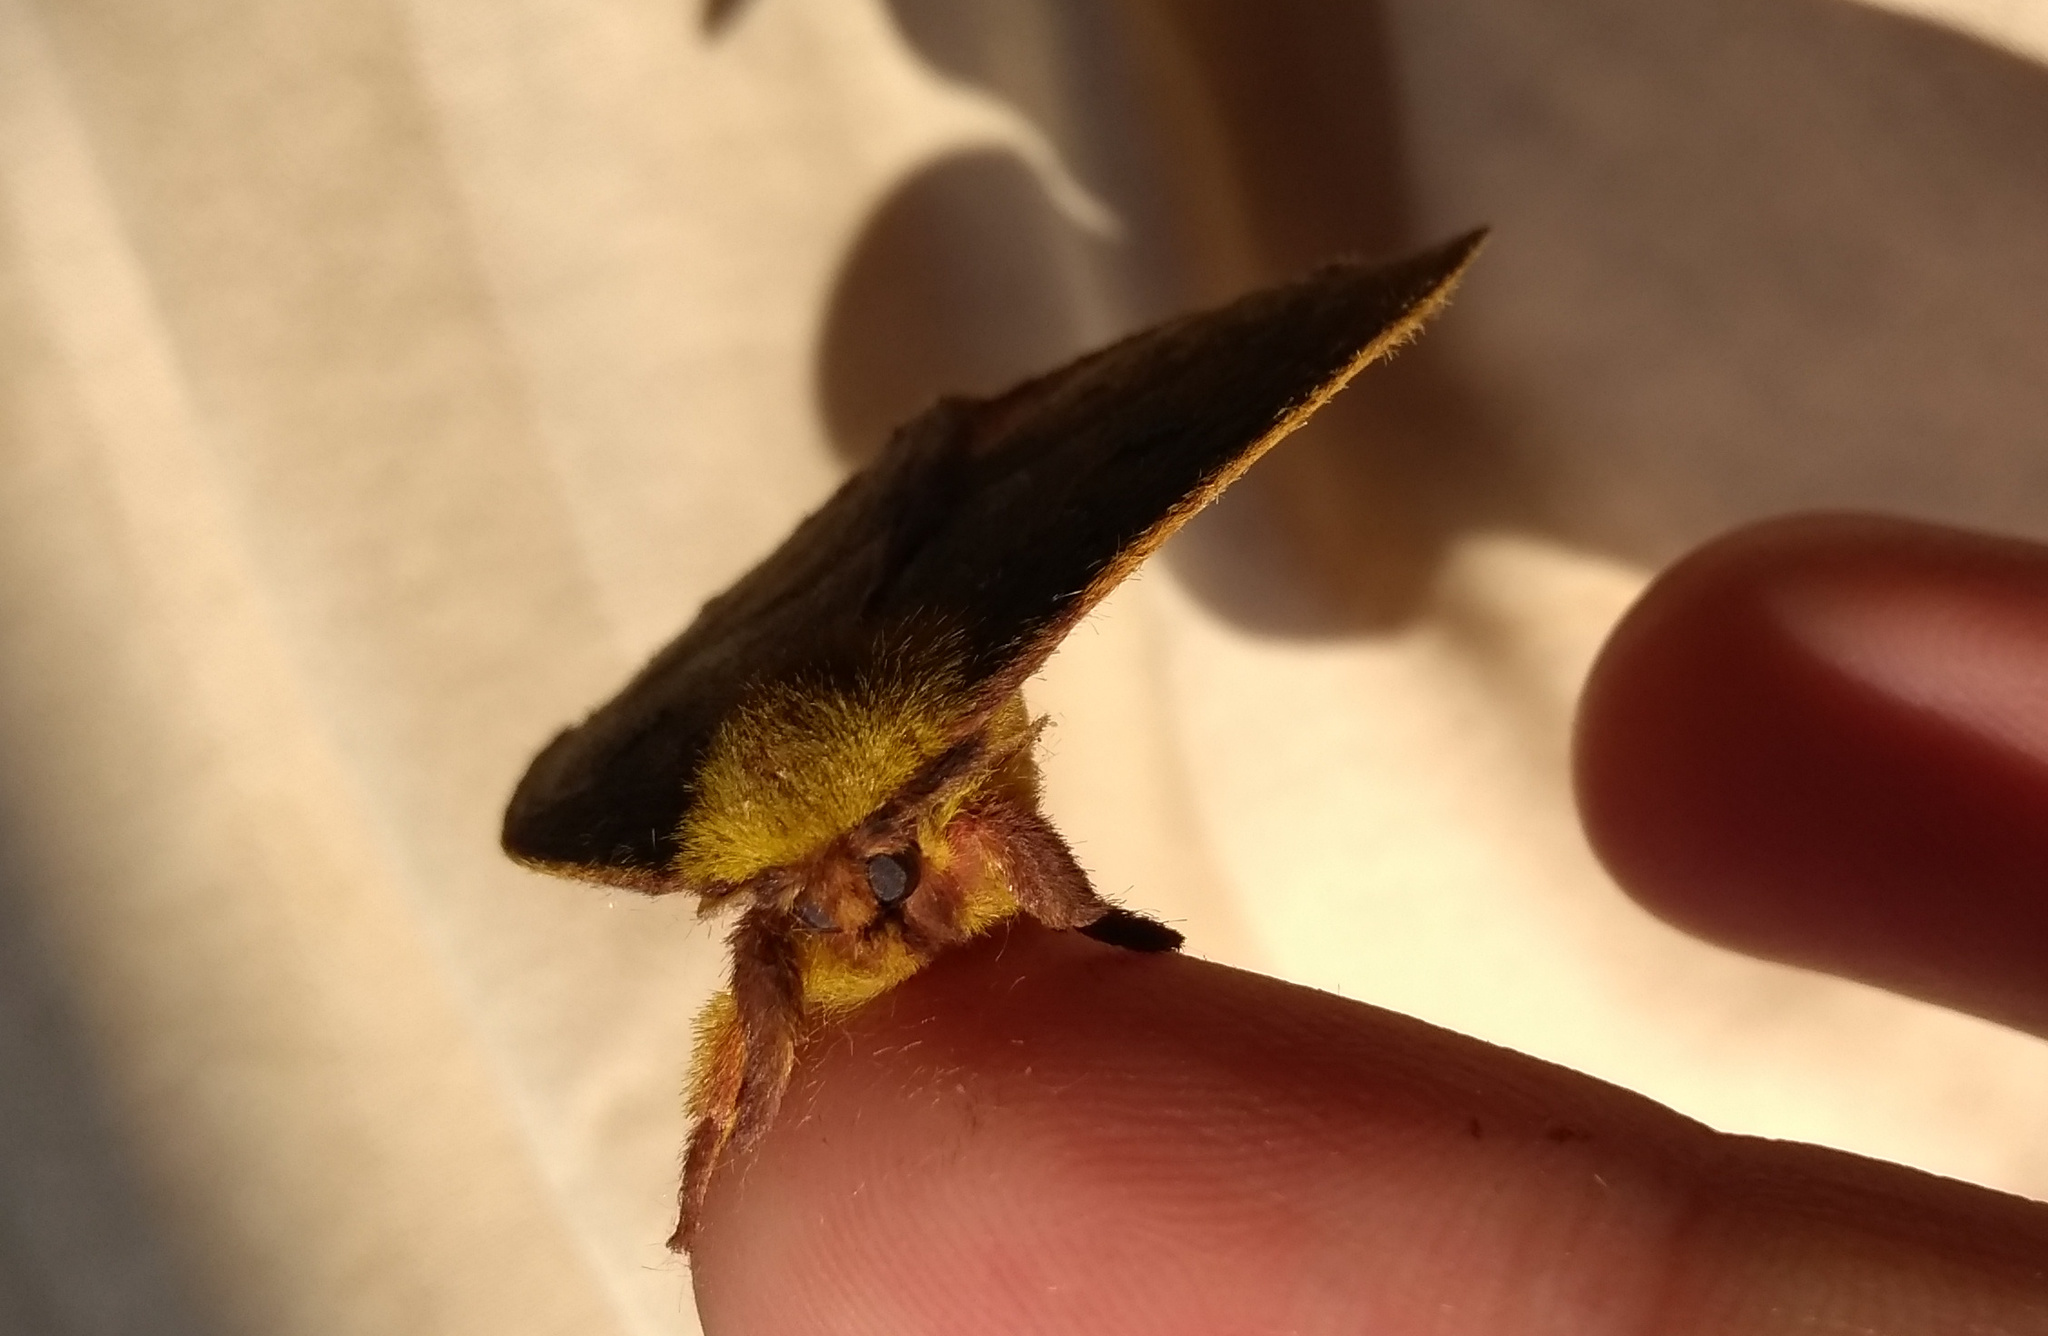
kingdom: Animalia
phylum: Arthropoda
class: Insecta
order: Lepidoptera
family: Saturniidae
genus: Catacantha
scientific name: Catacantha ferruginea
